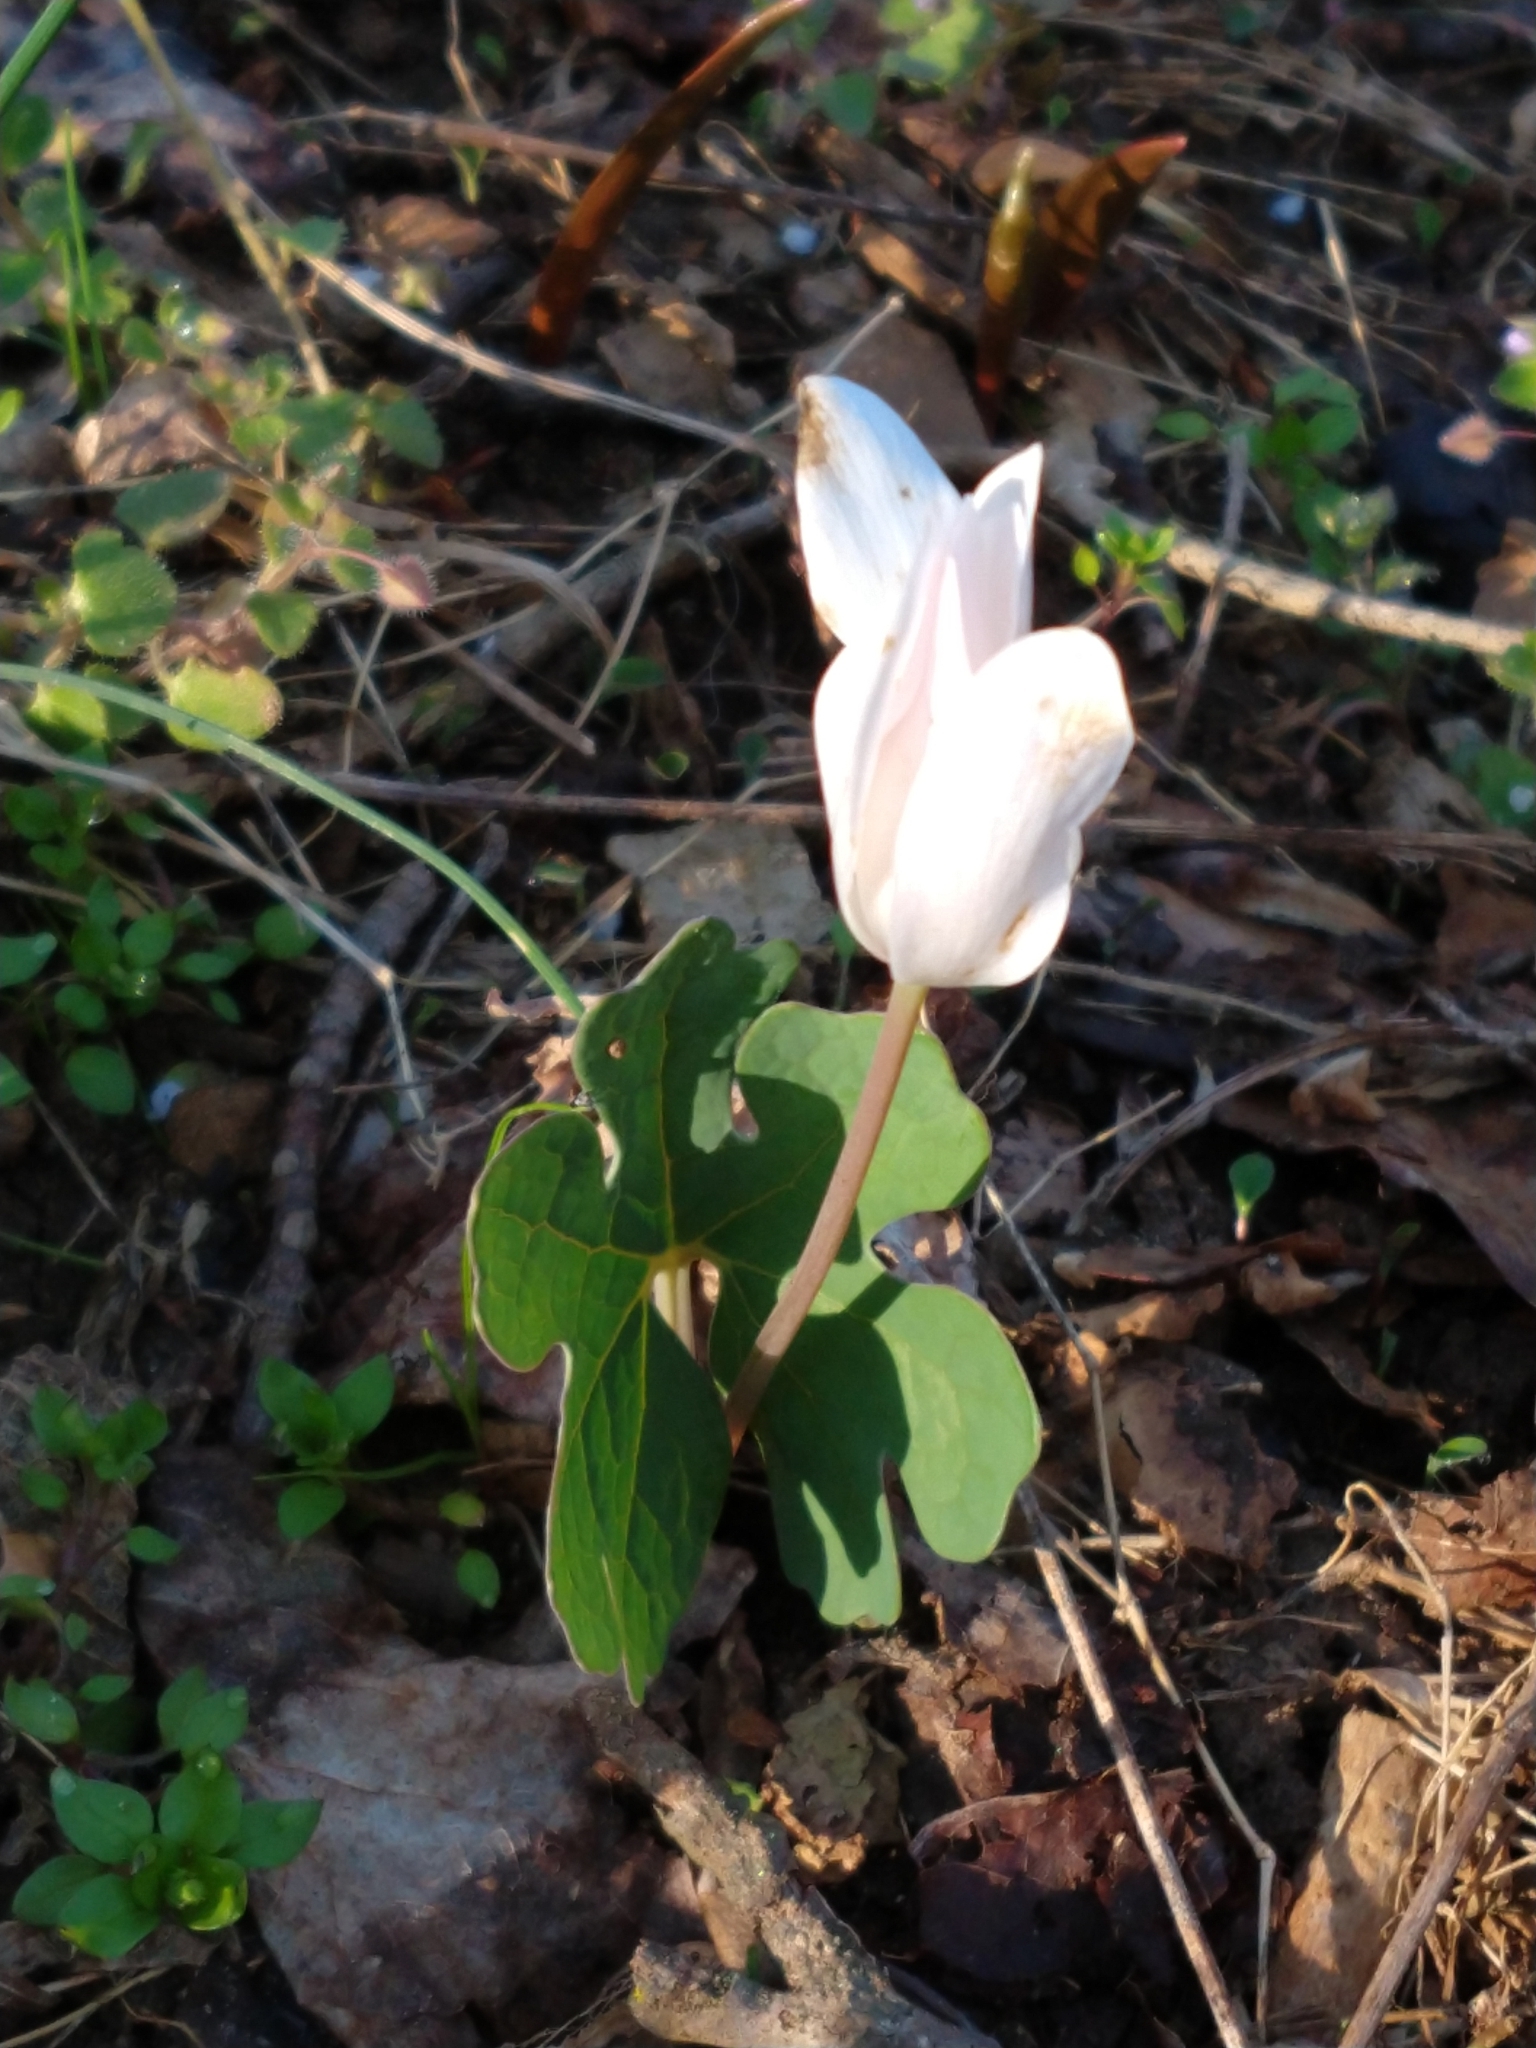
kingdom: Plantae
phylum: Tracheophyta
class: Magnoliopsida
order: Ranunculales
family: Papaveraceae
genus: Sanguinaria
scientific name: Sanguinaria canadensis
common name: Bloodroot
